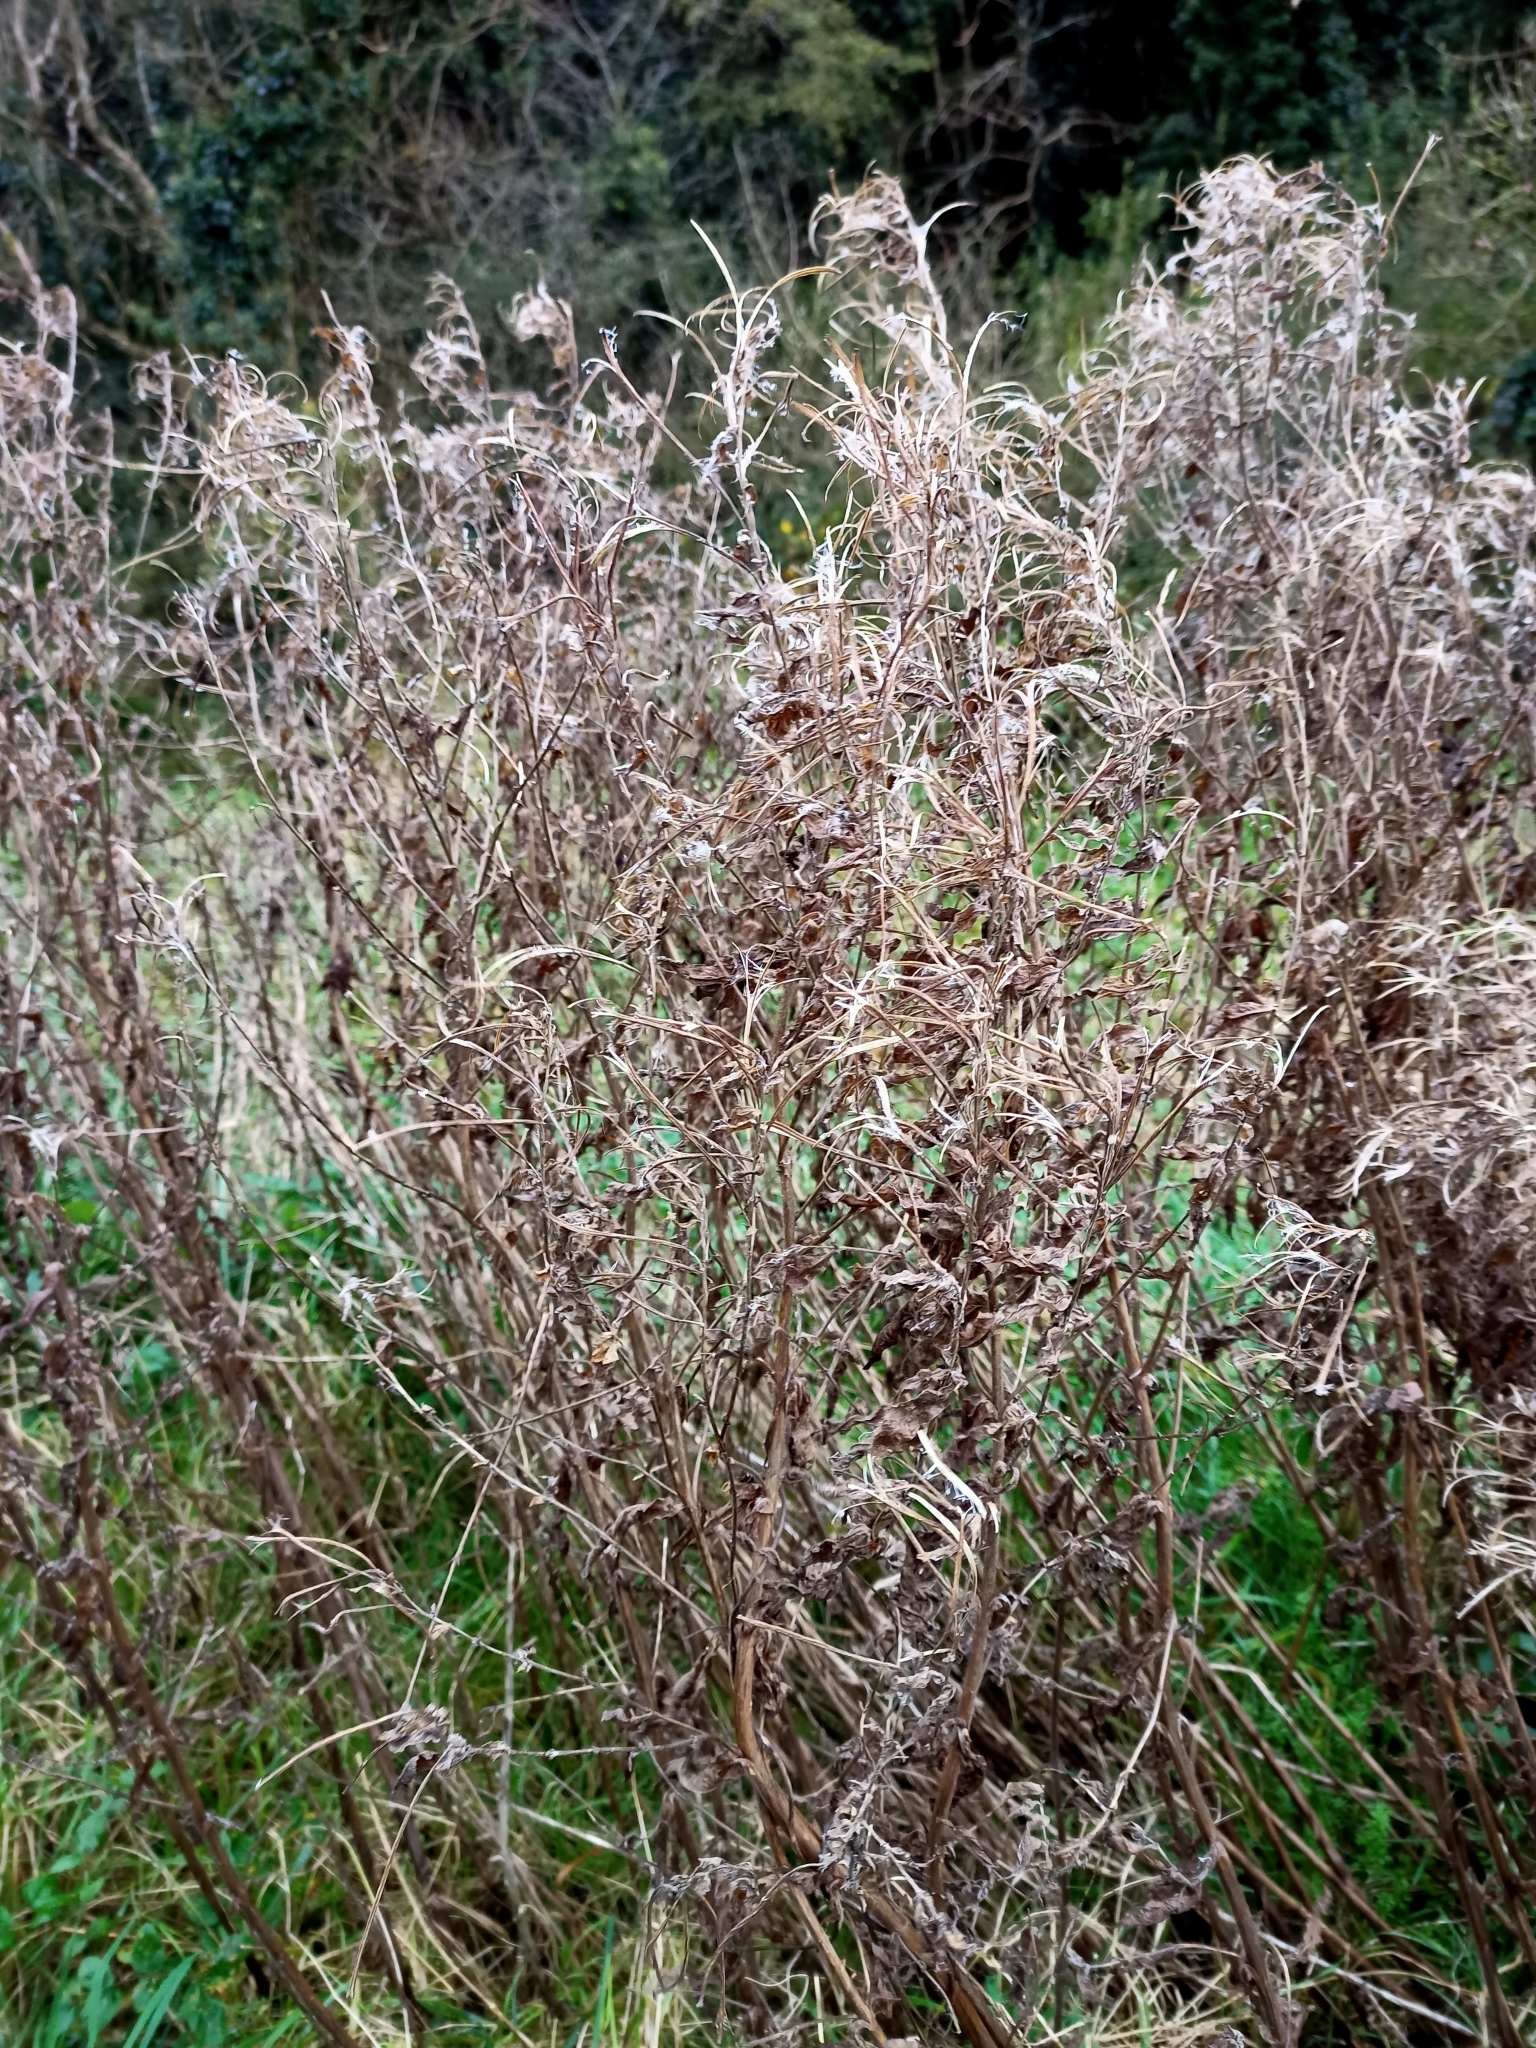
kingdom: Plantae
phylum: Tracheophyta
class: Magnoliopsida
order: Myrtales
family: Onagraceae
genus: Chamaenerion
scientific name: Chamaenerion angustifolium
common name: Fireweed
